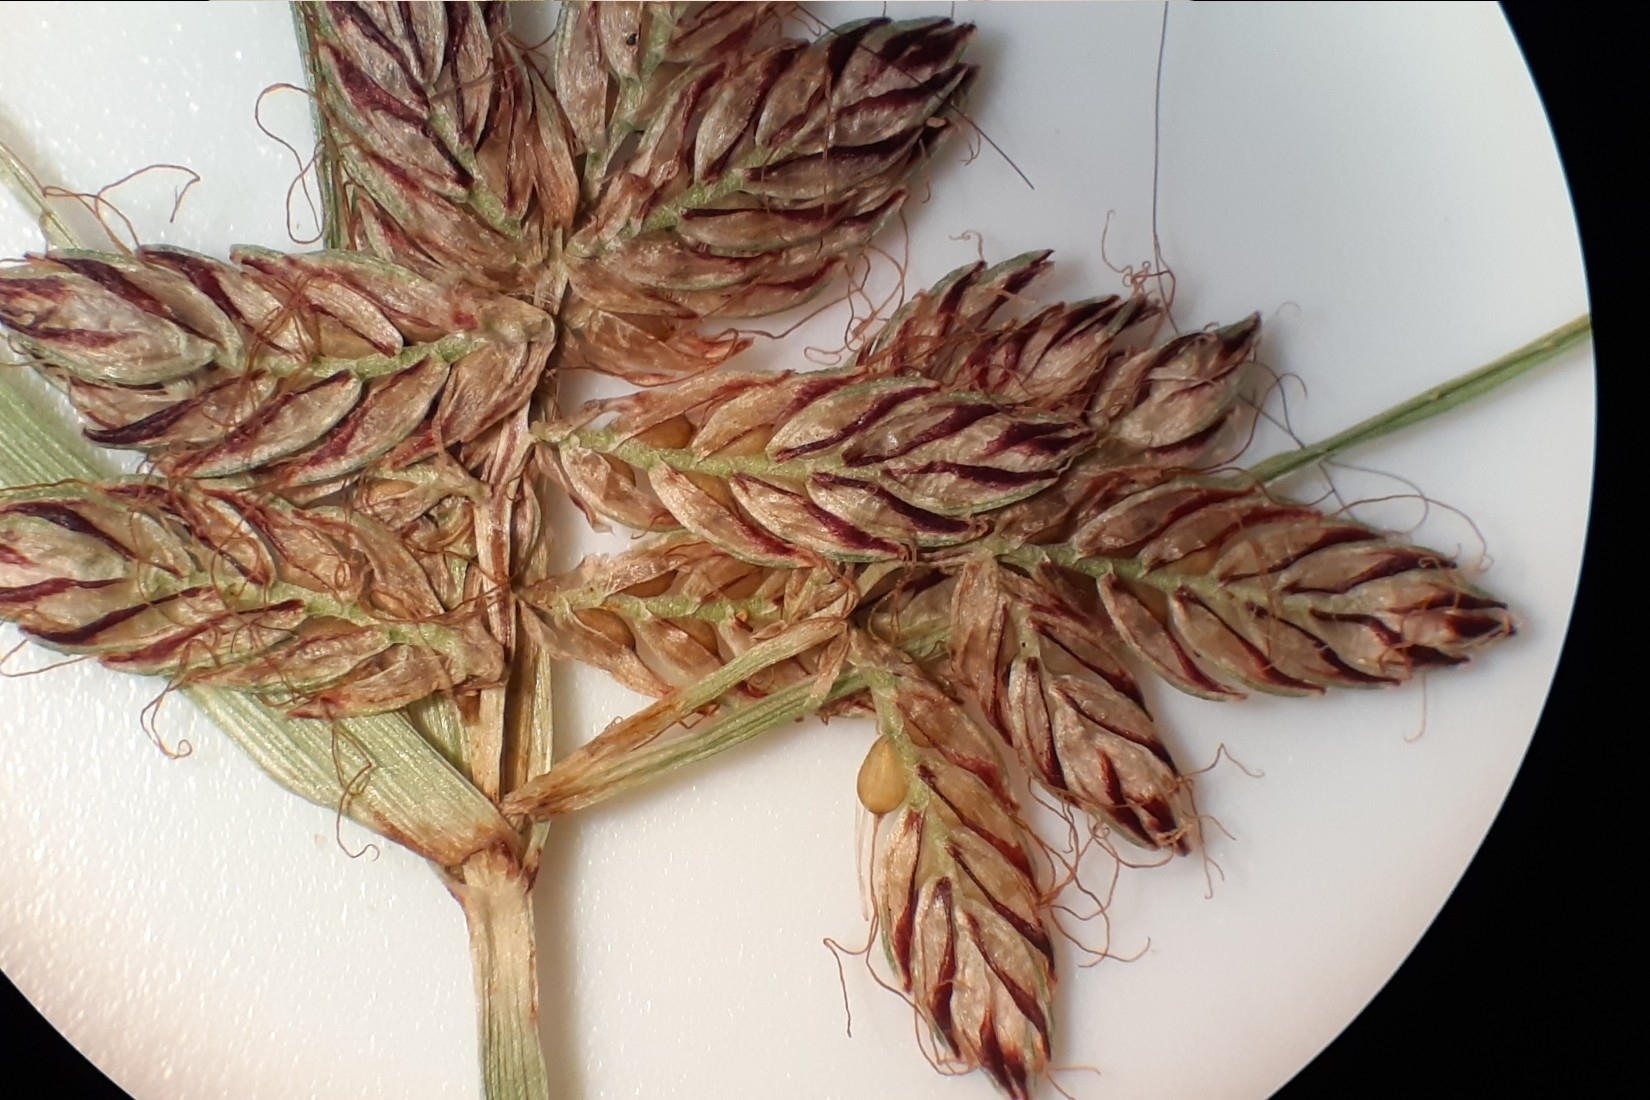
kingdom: Plantae
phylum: Tracheophyta
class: Liliopsida
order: Poales
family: Cyperaceae
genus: Cyperus
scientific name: Cyperus diandrus
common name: Low cyperus
